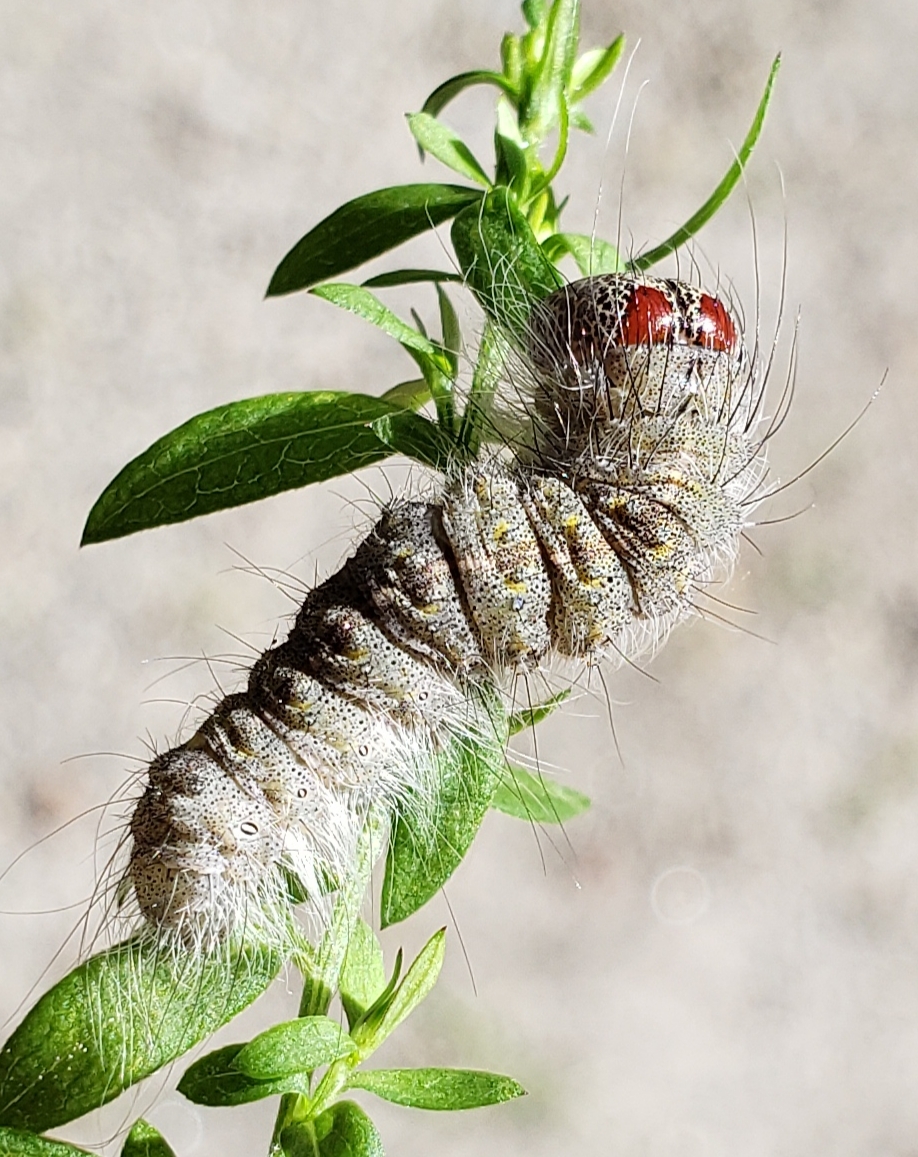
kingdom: Animalia
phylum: Arthropoda
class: Insecta
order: Lepidoptera
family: Noctuidae
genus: Acronicta
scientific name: Acronicta lobeliae
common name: Greater oak dagger
